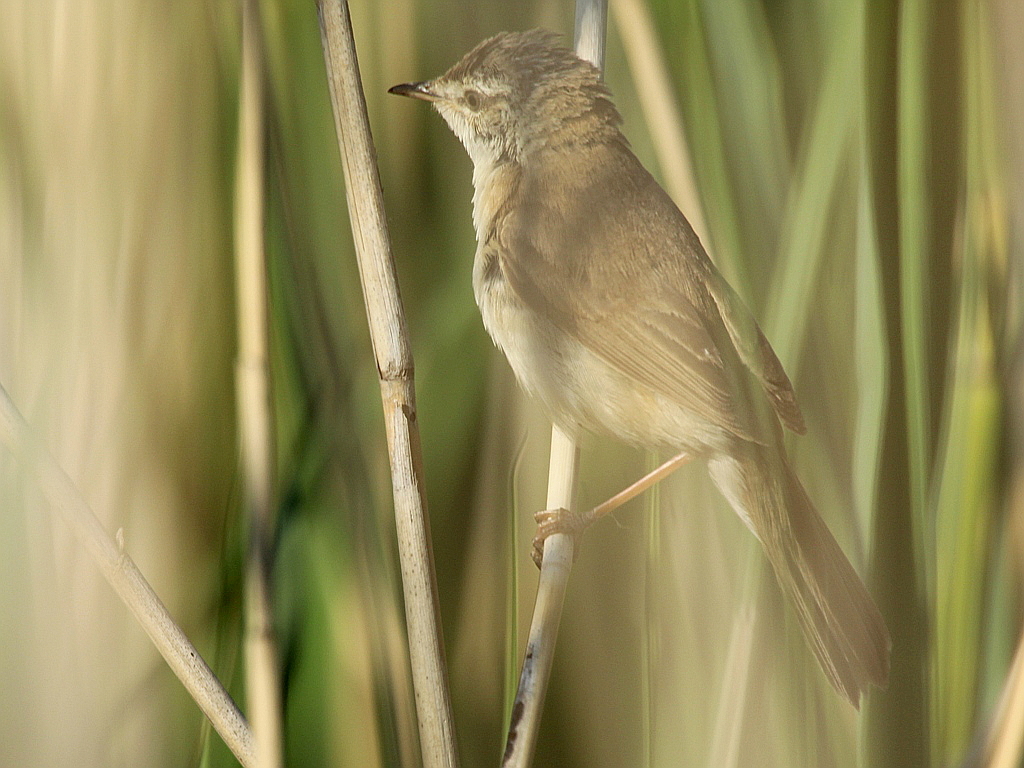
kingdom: Animalia
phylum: Chordata
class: Aves
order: Passeriformes
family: Acrocephalidae
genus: Acrocephalus
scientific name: Acrocephalus agricola
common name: Paddyfield warbler
